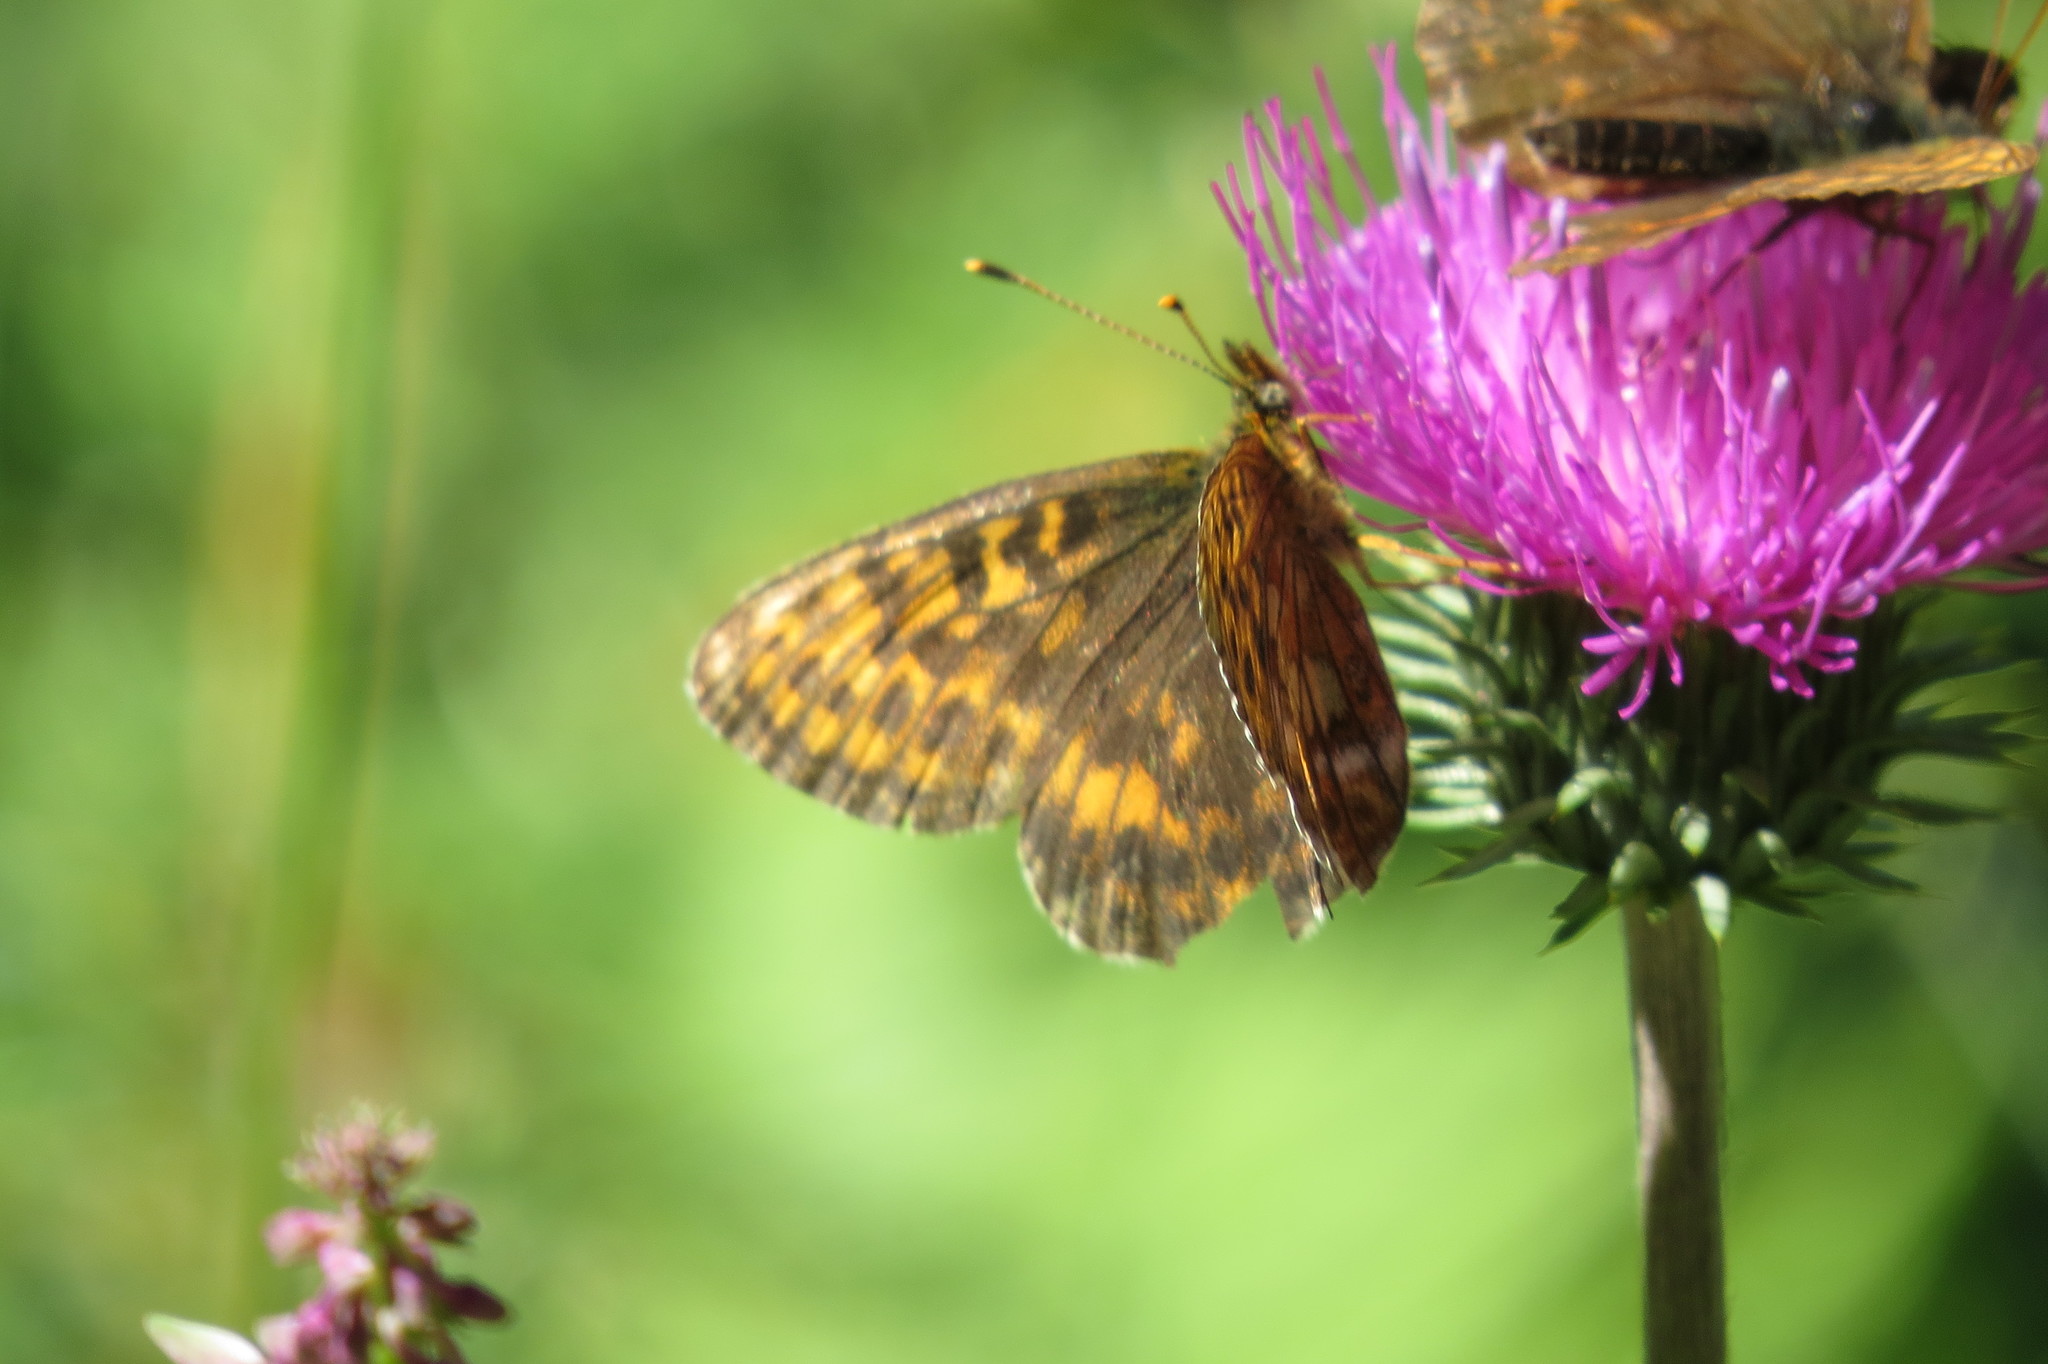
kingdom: Animalia
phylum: Arthropoda
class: Insecta
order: Lepidoptera
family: Nymphalidae
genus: Boloria
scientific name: Boloria thore
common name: Thor's fritillary
